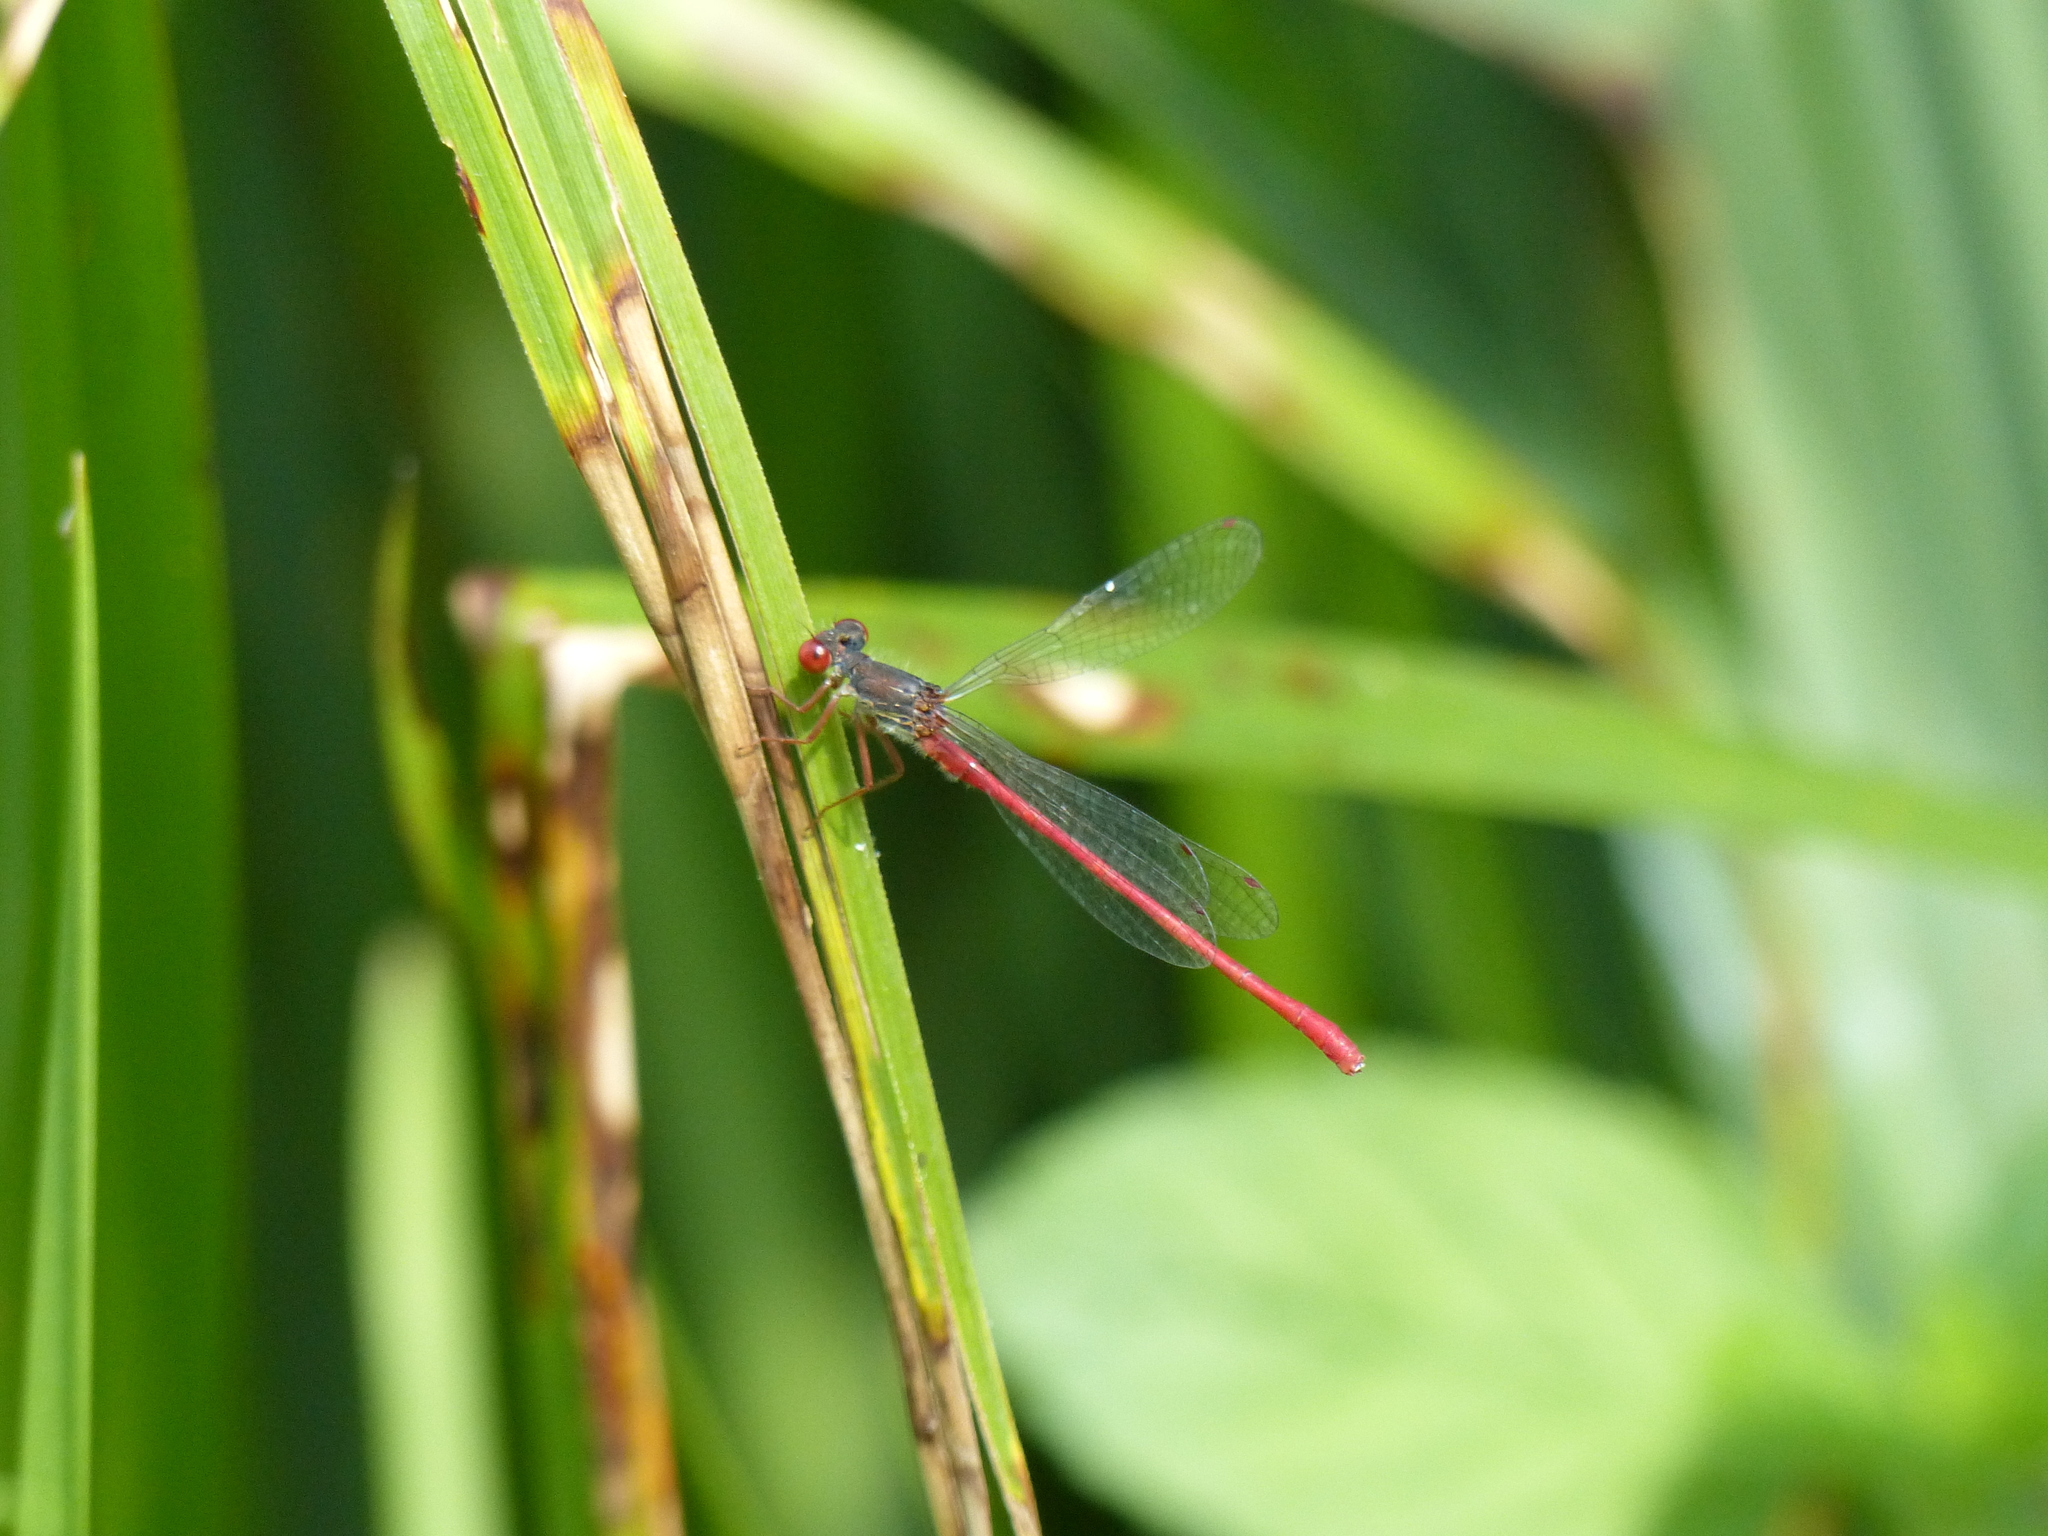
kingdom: Animalia
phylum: Arthropoda
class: Insecta
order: Odonata
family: Coenagrionidae
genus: Ceriagrion
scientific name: Ceriagrion tenellum
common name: Small red damselfly
